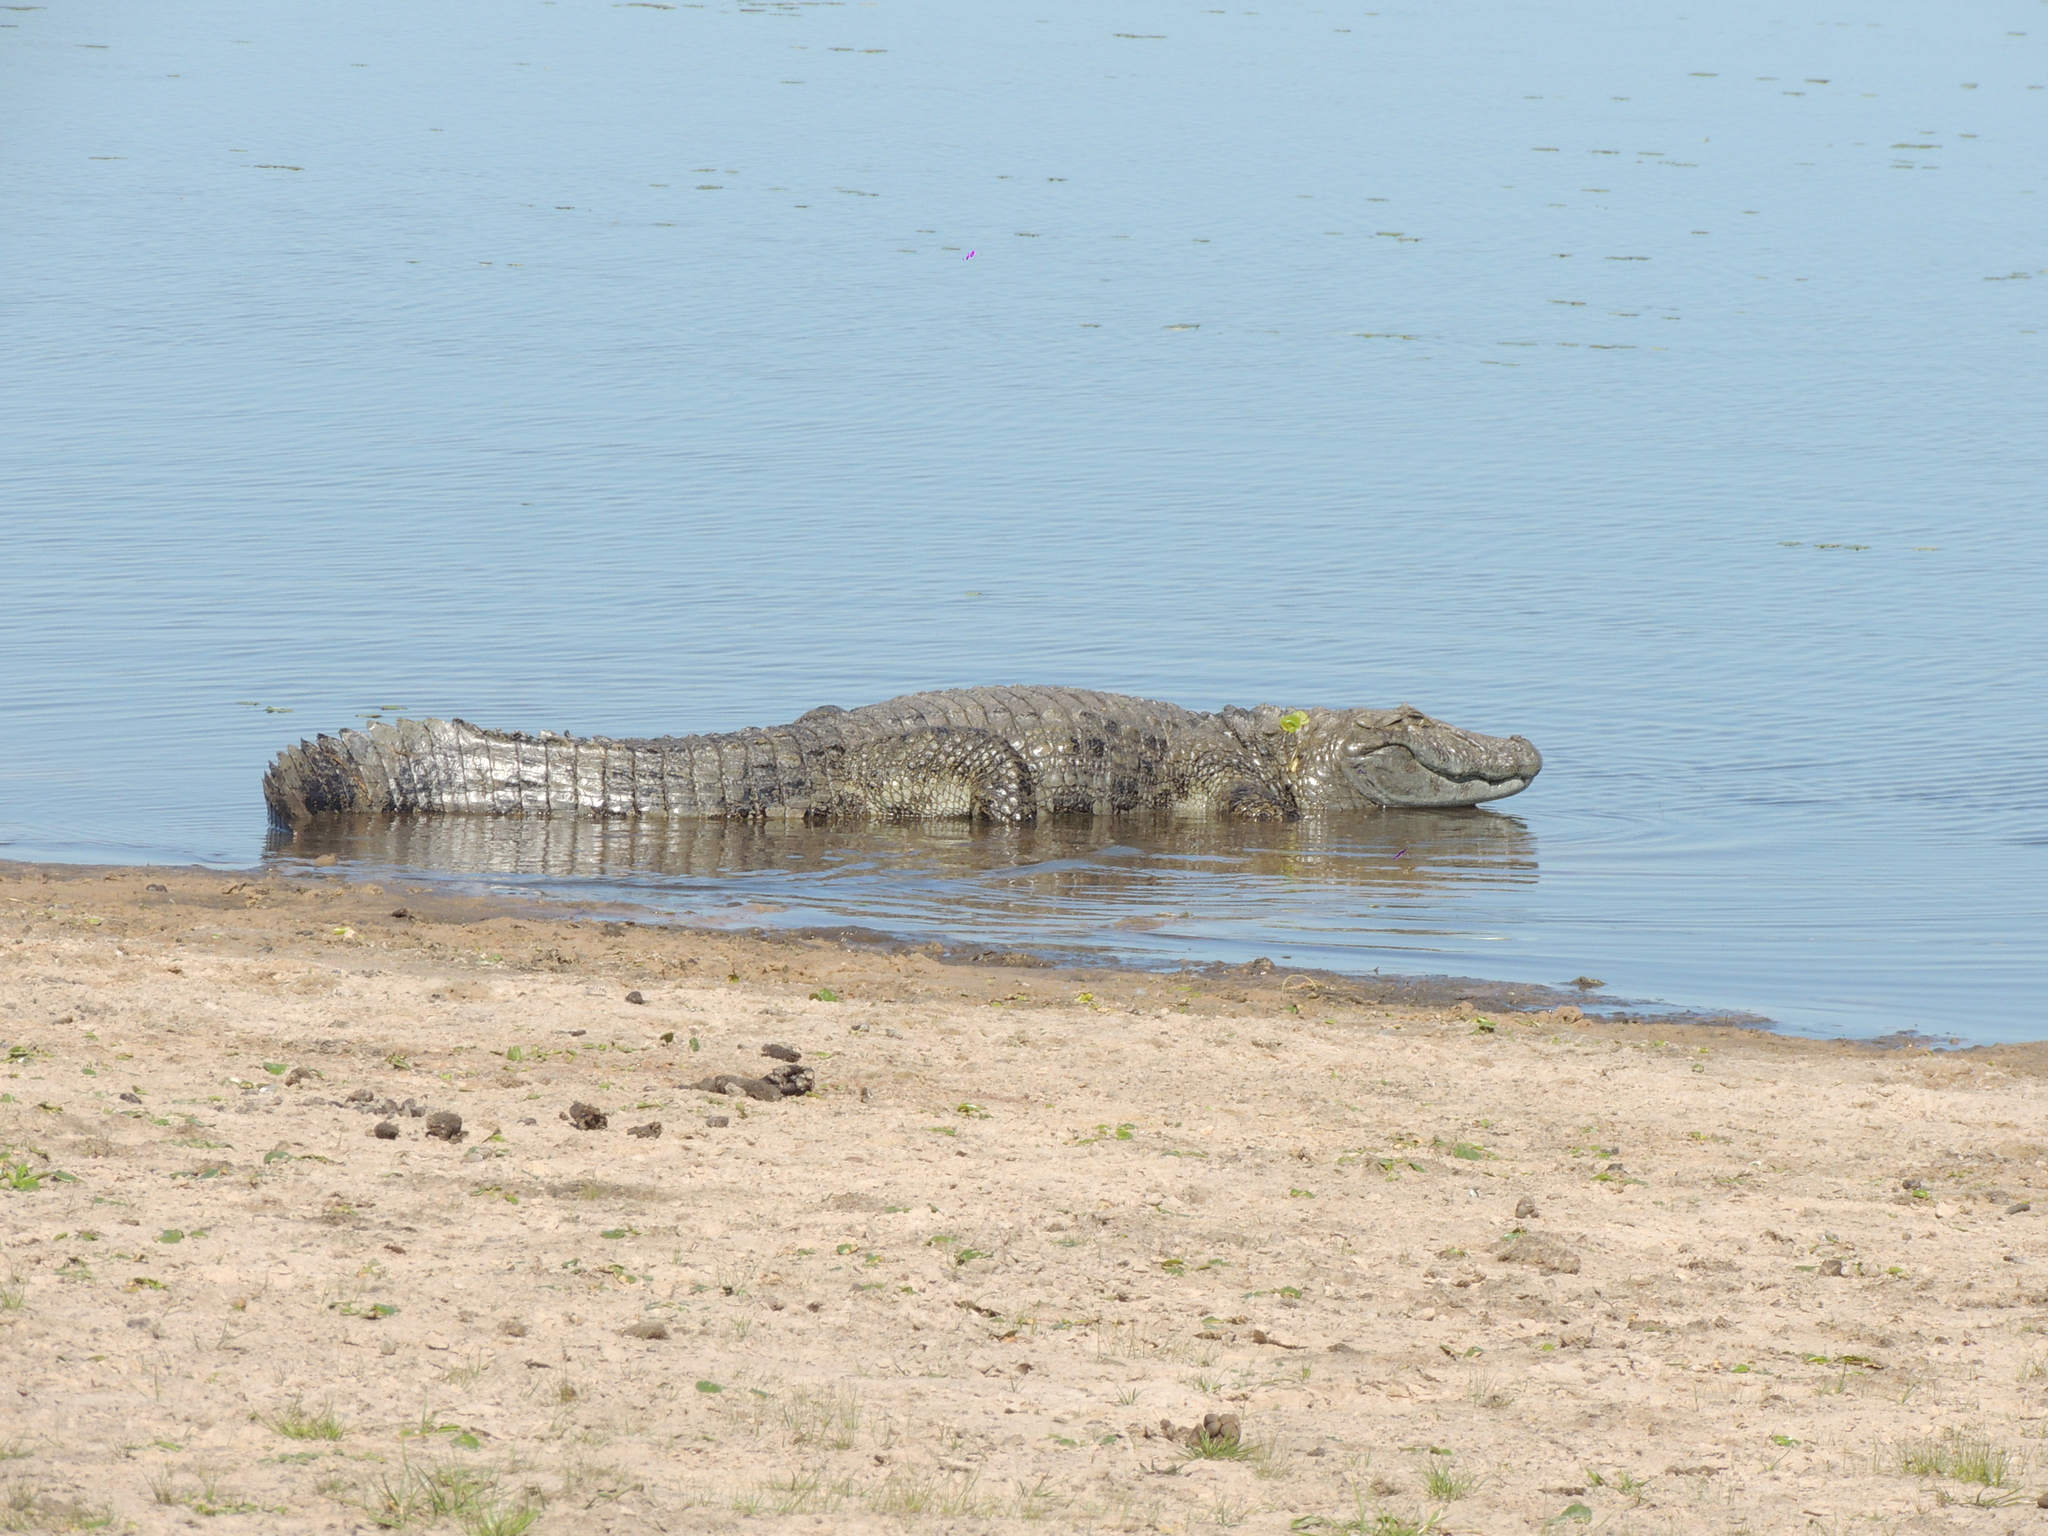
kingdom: Animalia
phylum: Chordata
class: Crocodylia
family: Alligatoridae
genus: Caiman
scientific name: Caiman latirostris
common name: Broad-snouted caiman
